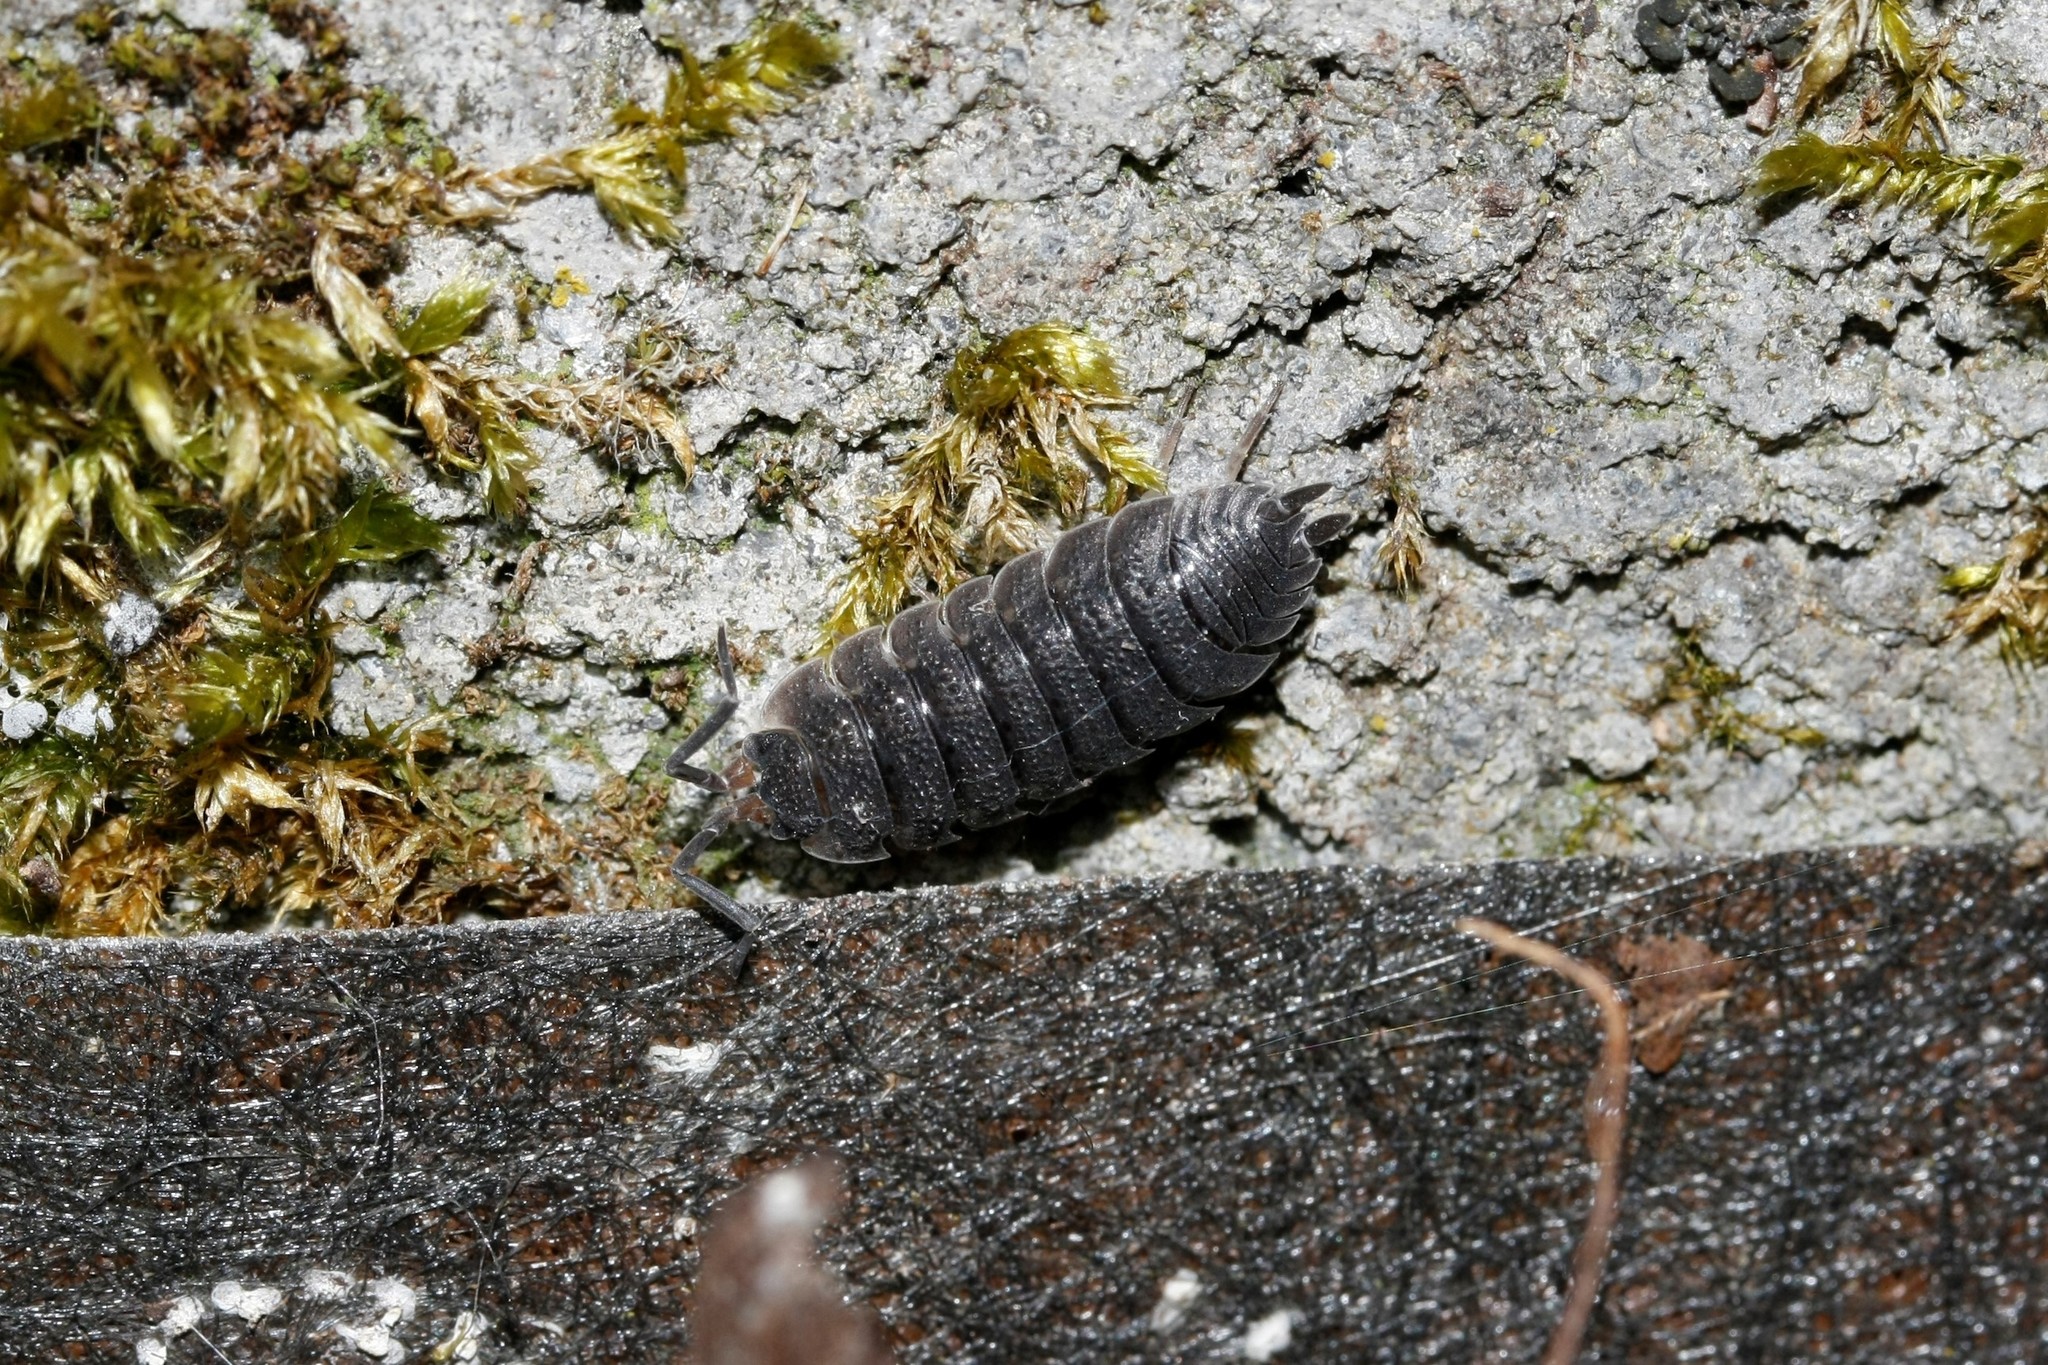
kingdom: Animalia
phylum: Arthropoda
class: Malacostraca
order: Isopoda
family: Porcellionidae
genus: Porcellio
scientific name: Porcellio scaber
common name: Common rough woodlouse
